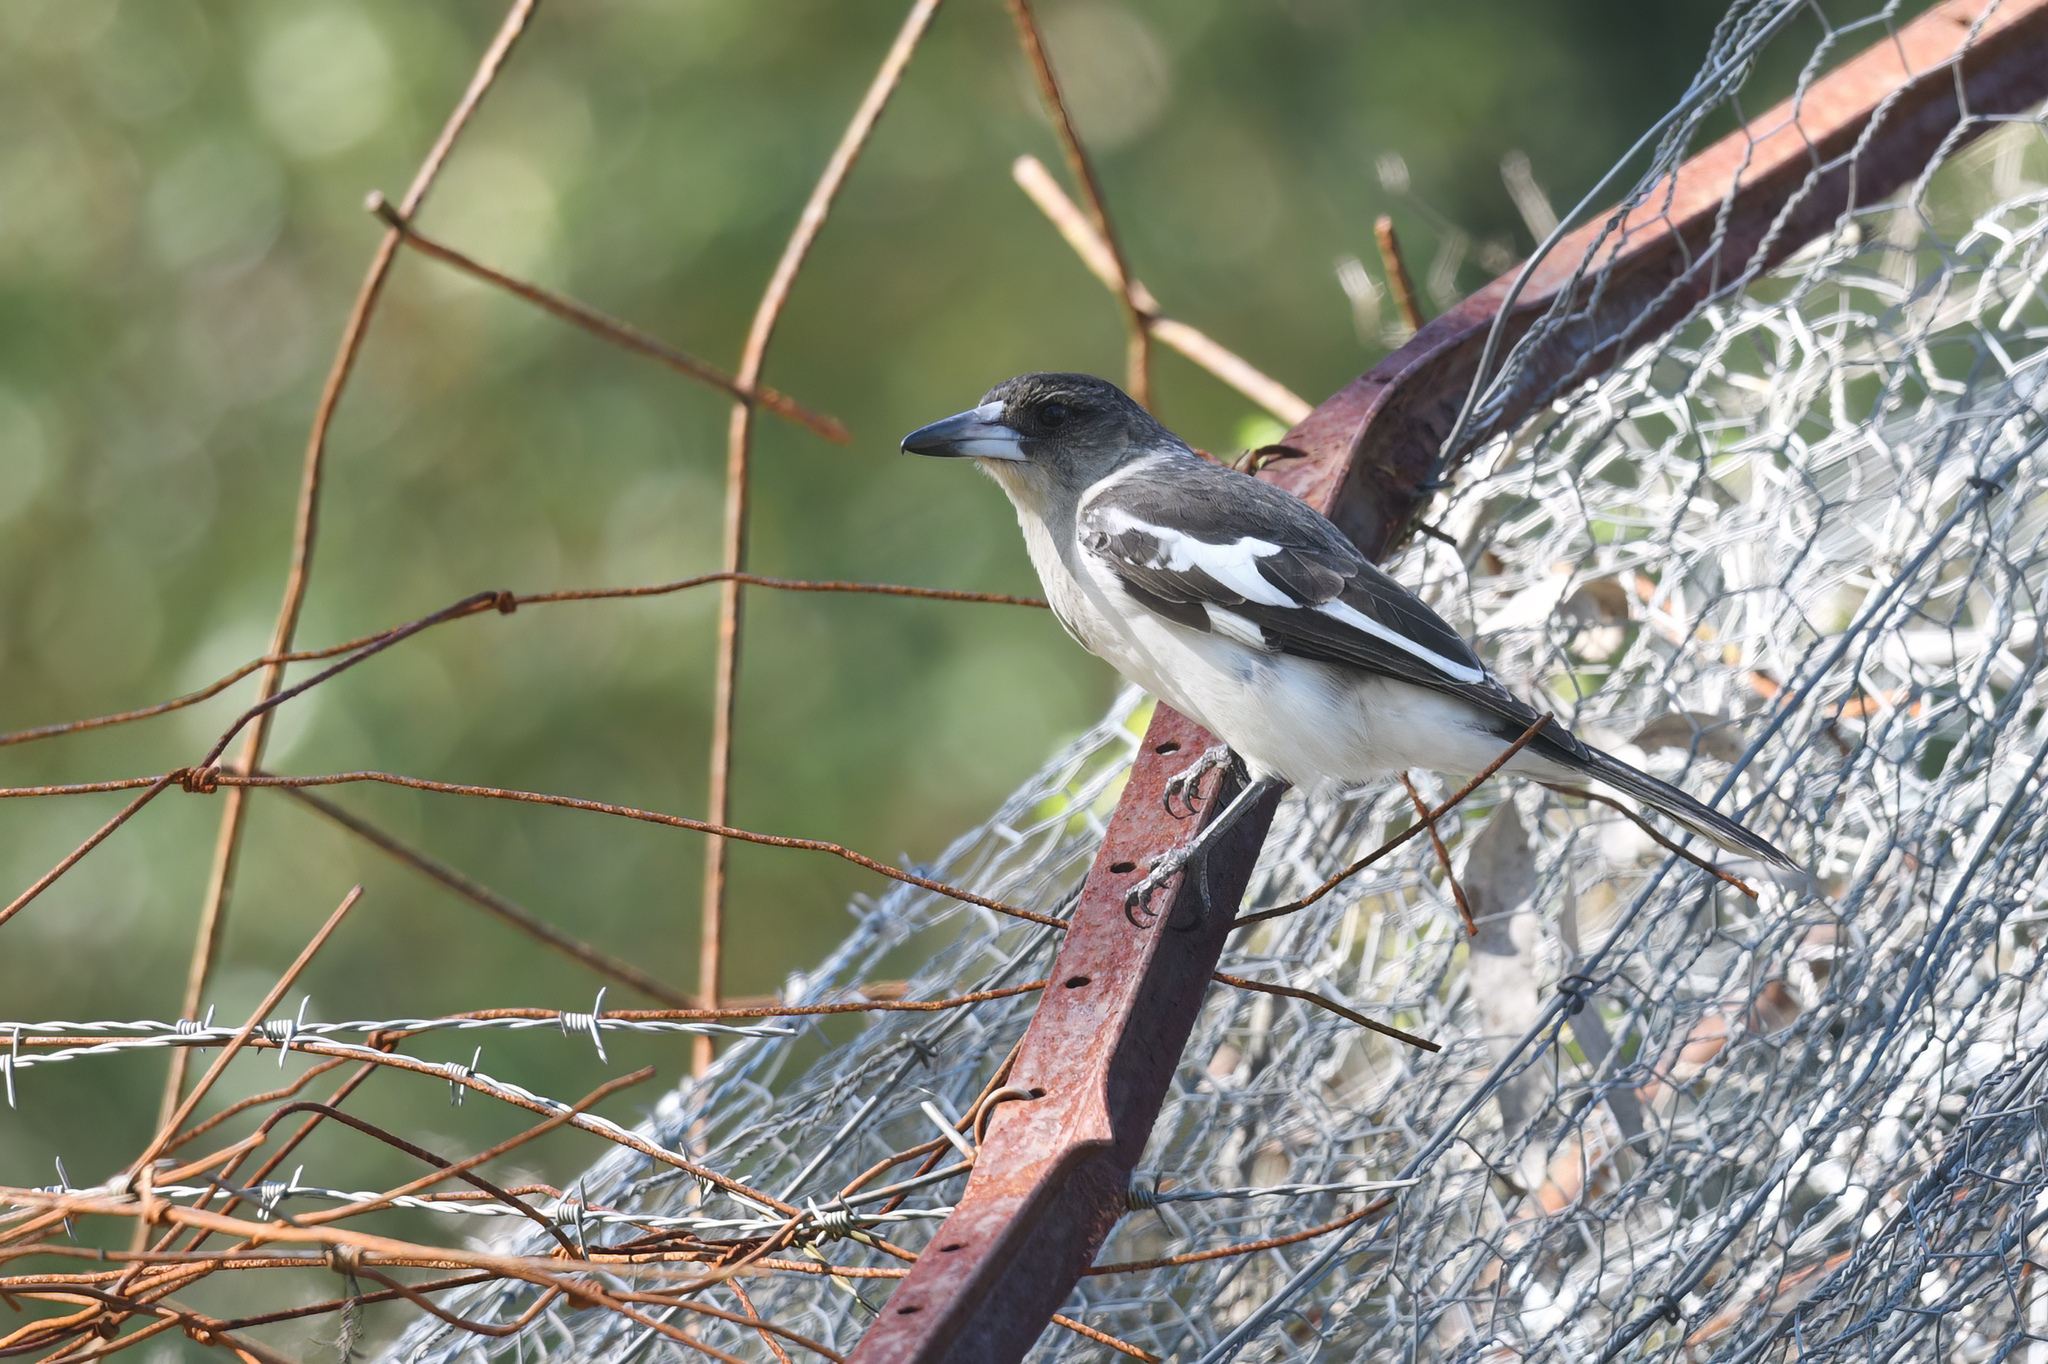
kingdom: Animalia
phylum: Chordata
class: Aves
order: Passeriformes
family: Cracticidae
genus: Cracticus
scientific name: Cracticus nigrogularis
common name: Pied butcherbird
